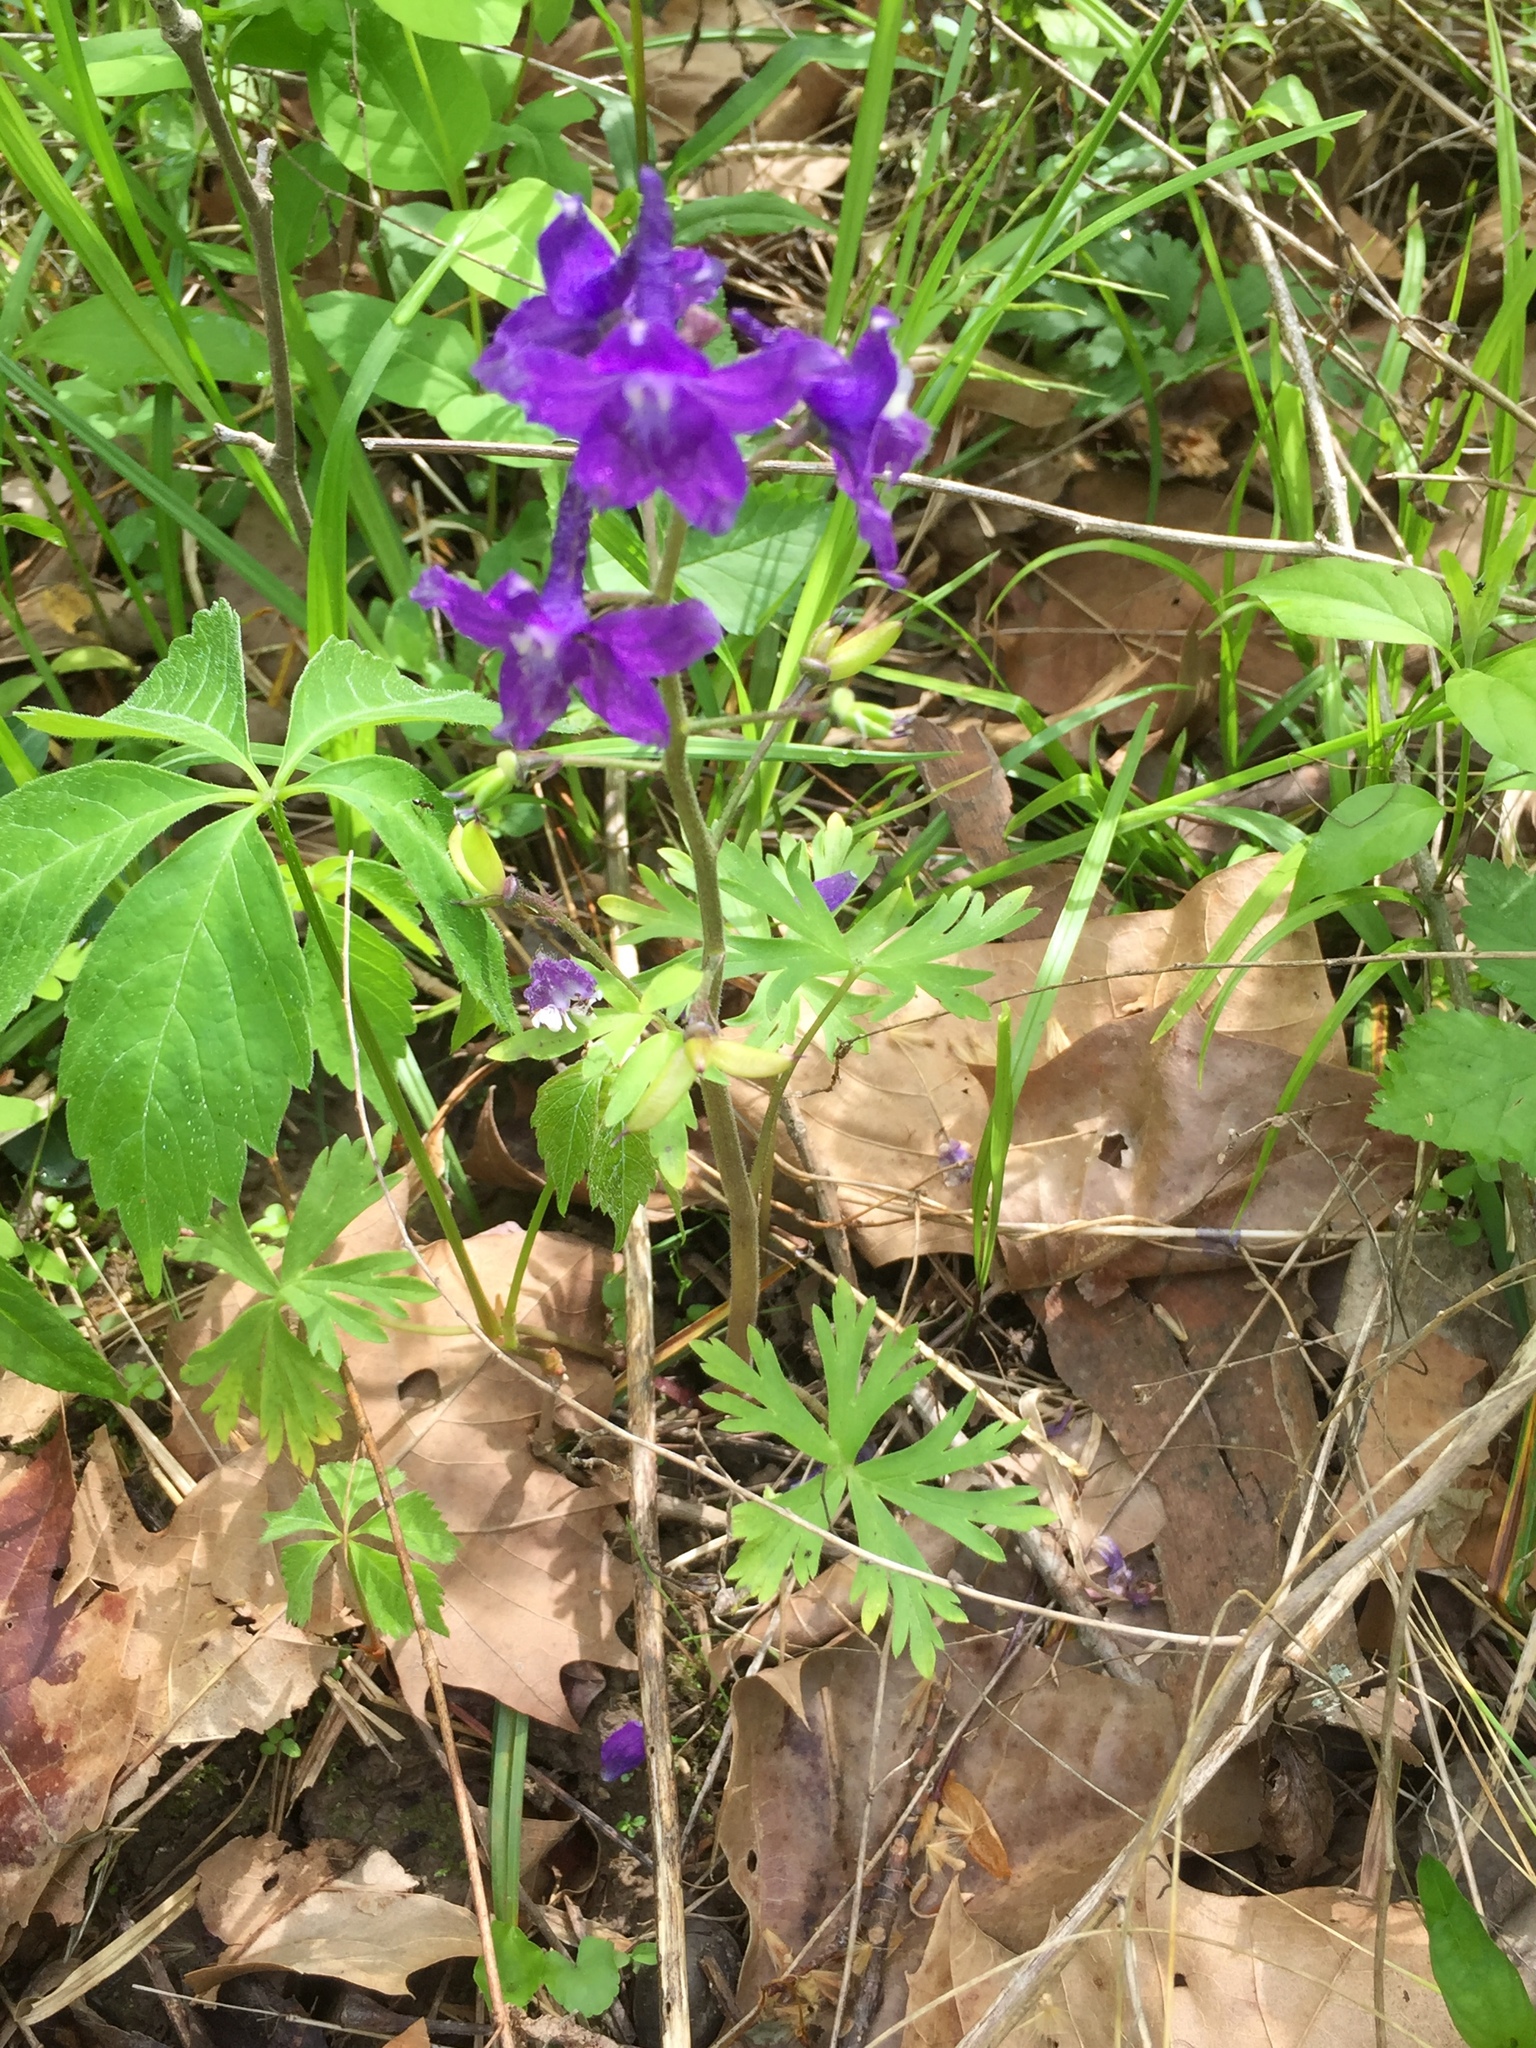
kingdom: Plantae
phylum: Tracheophyta
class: Magnoliopsida
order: Ranunculales
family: Ranunculaceae
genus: Delphinium
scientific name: Delphinium tricorne
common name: Dwarf larkspur
